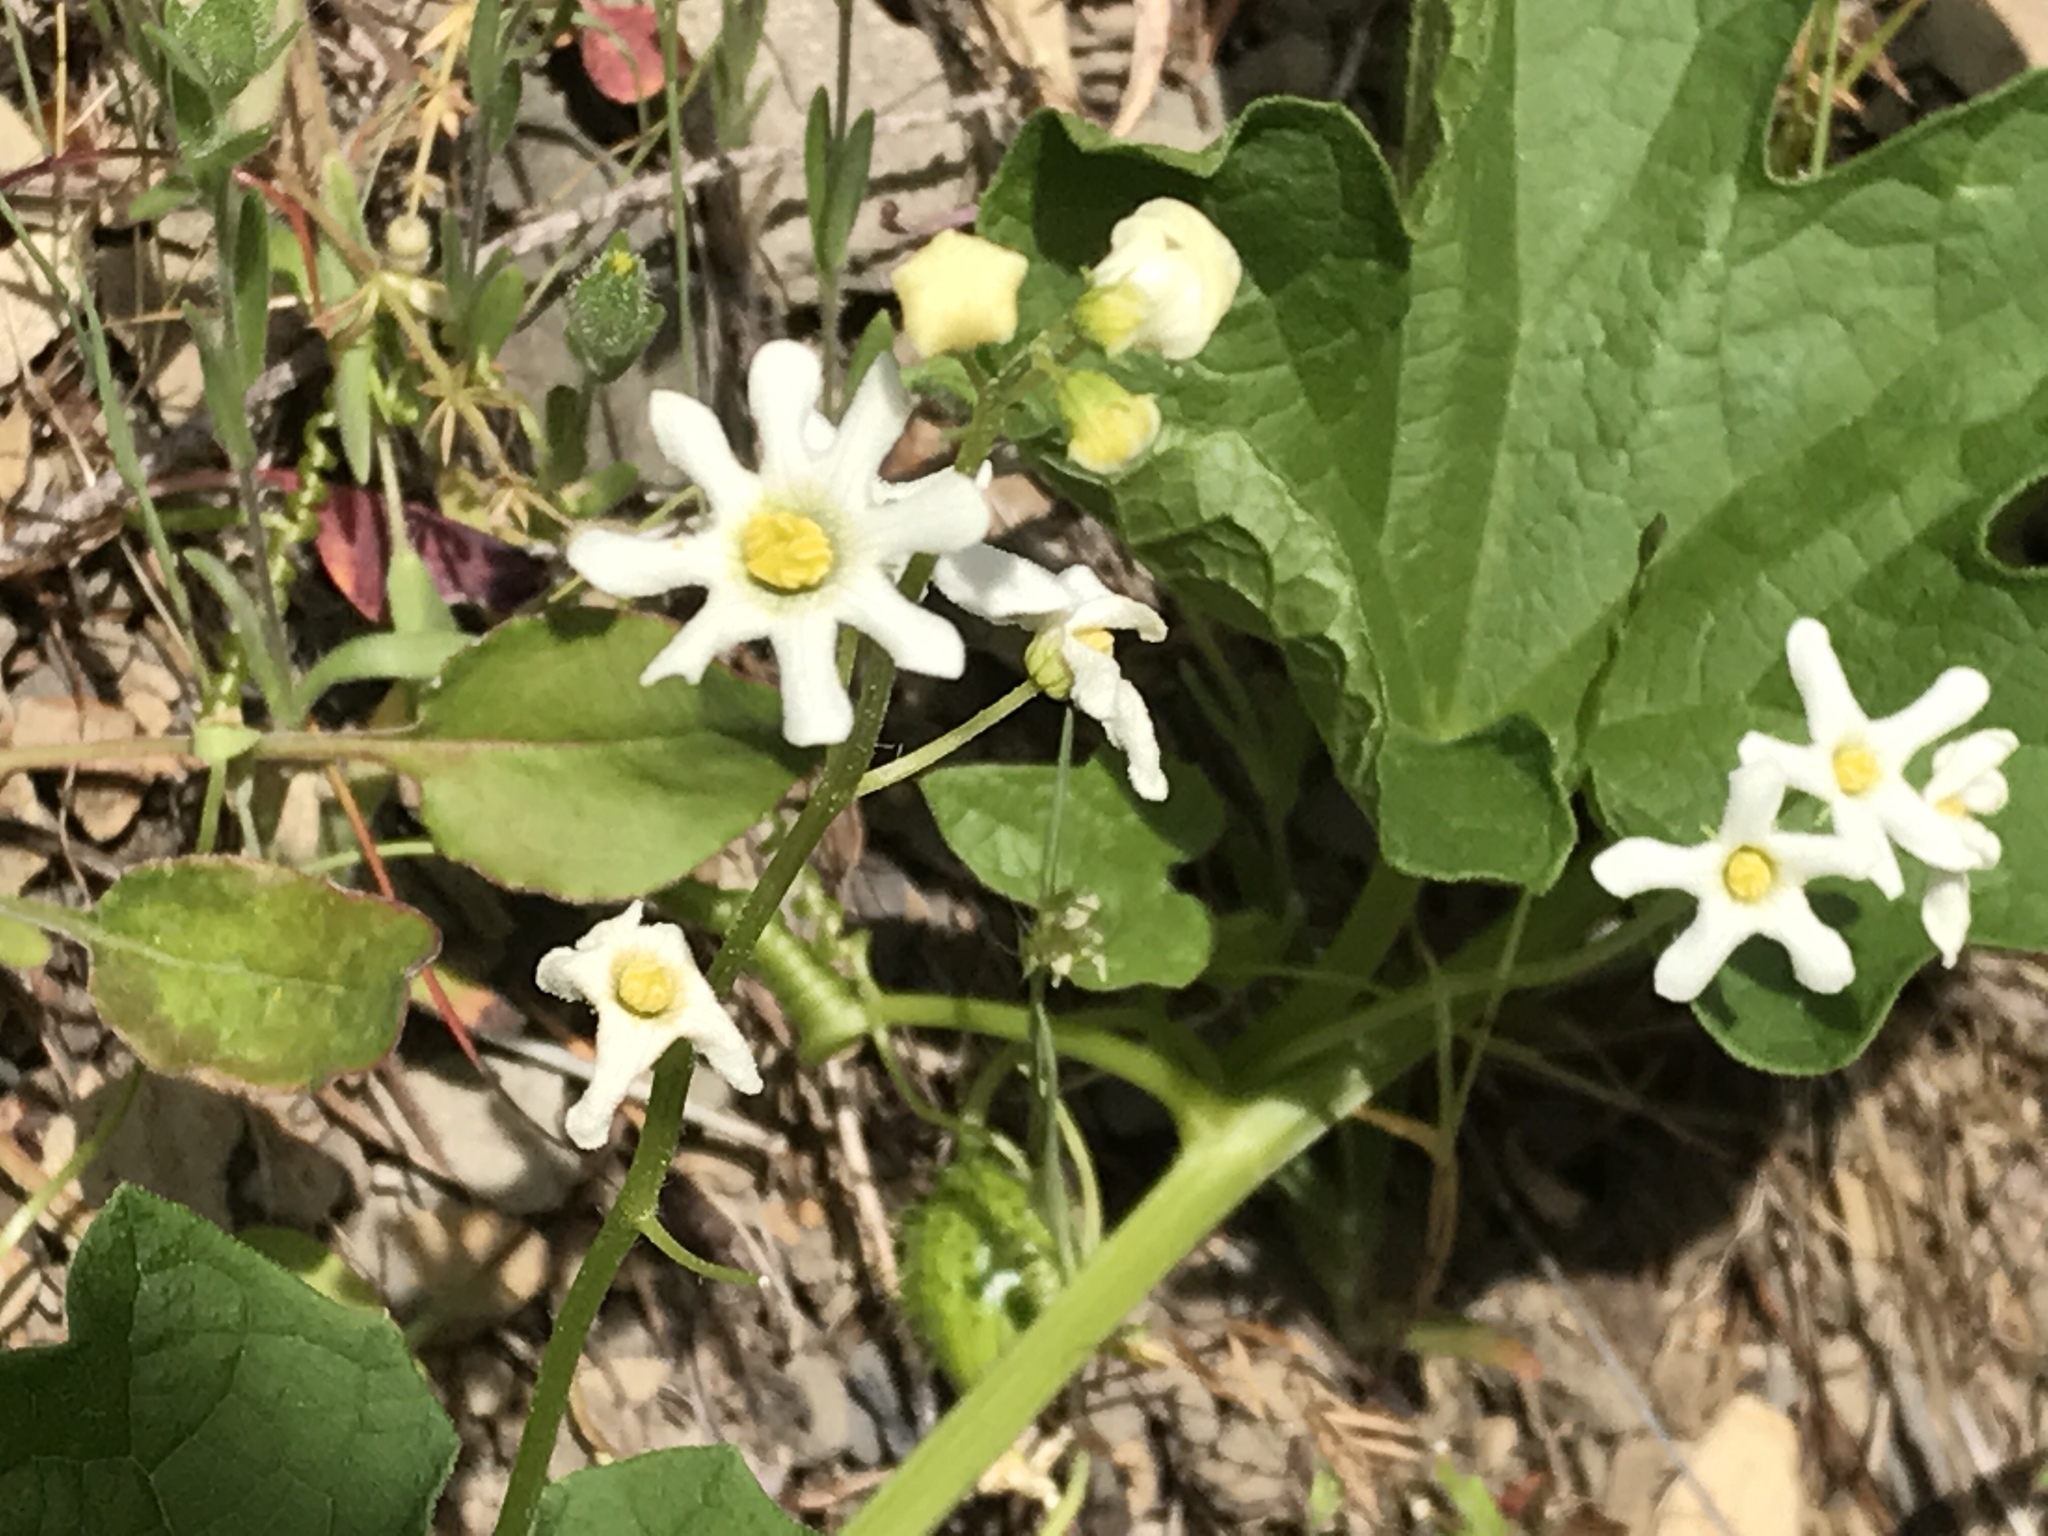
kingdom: Plantae
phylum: Tracheophyta
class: Magnoliopsida
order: Cucurbitales
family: Cucurbitaceae
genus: Marah
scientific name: Marah oregana
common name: Coastal manroot
